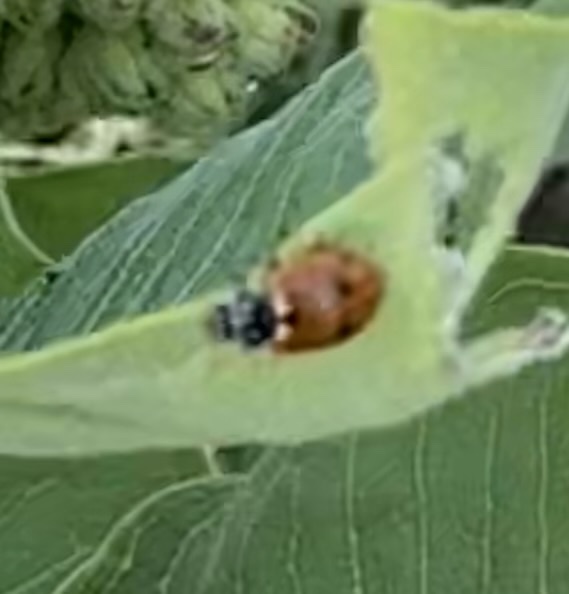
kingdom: Animalia
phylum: Arthropoda
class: Insecta
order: Coleoptera
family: Coccinellidae
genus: Hippodamia
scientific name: Hippodamia variegata
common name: Ladybird beetle
